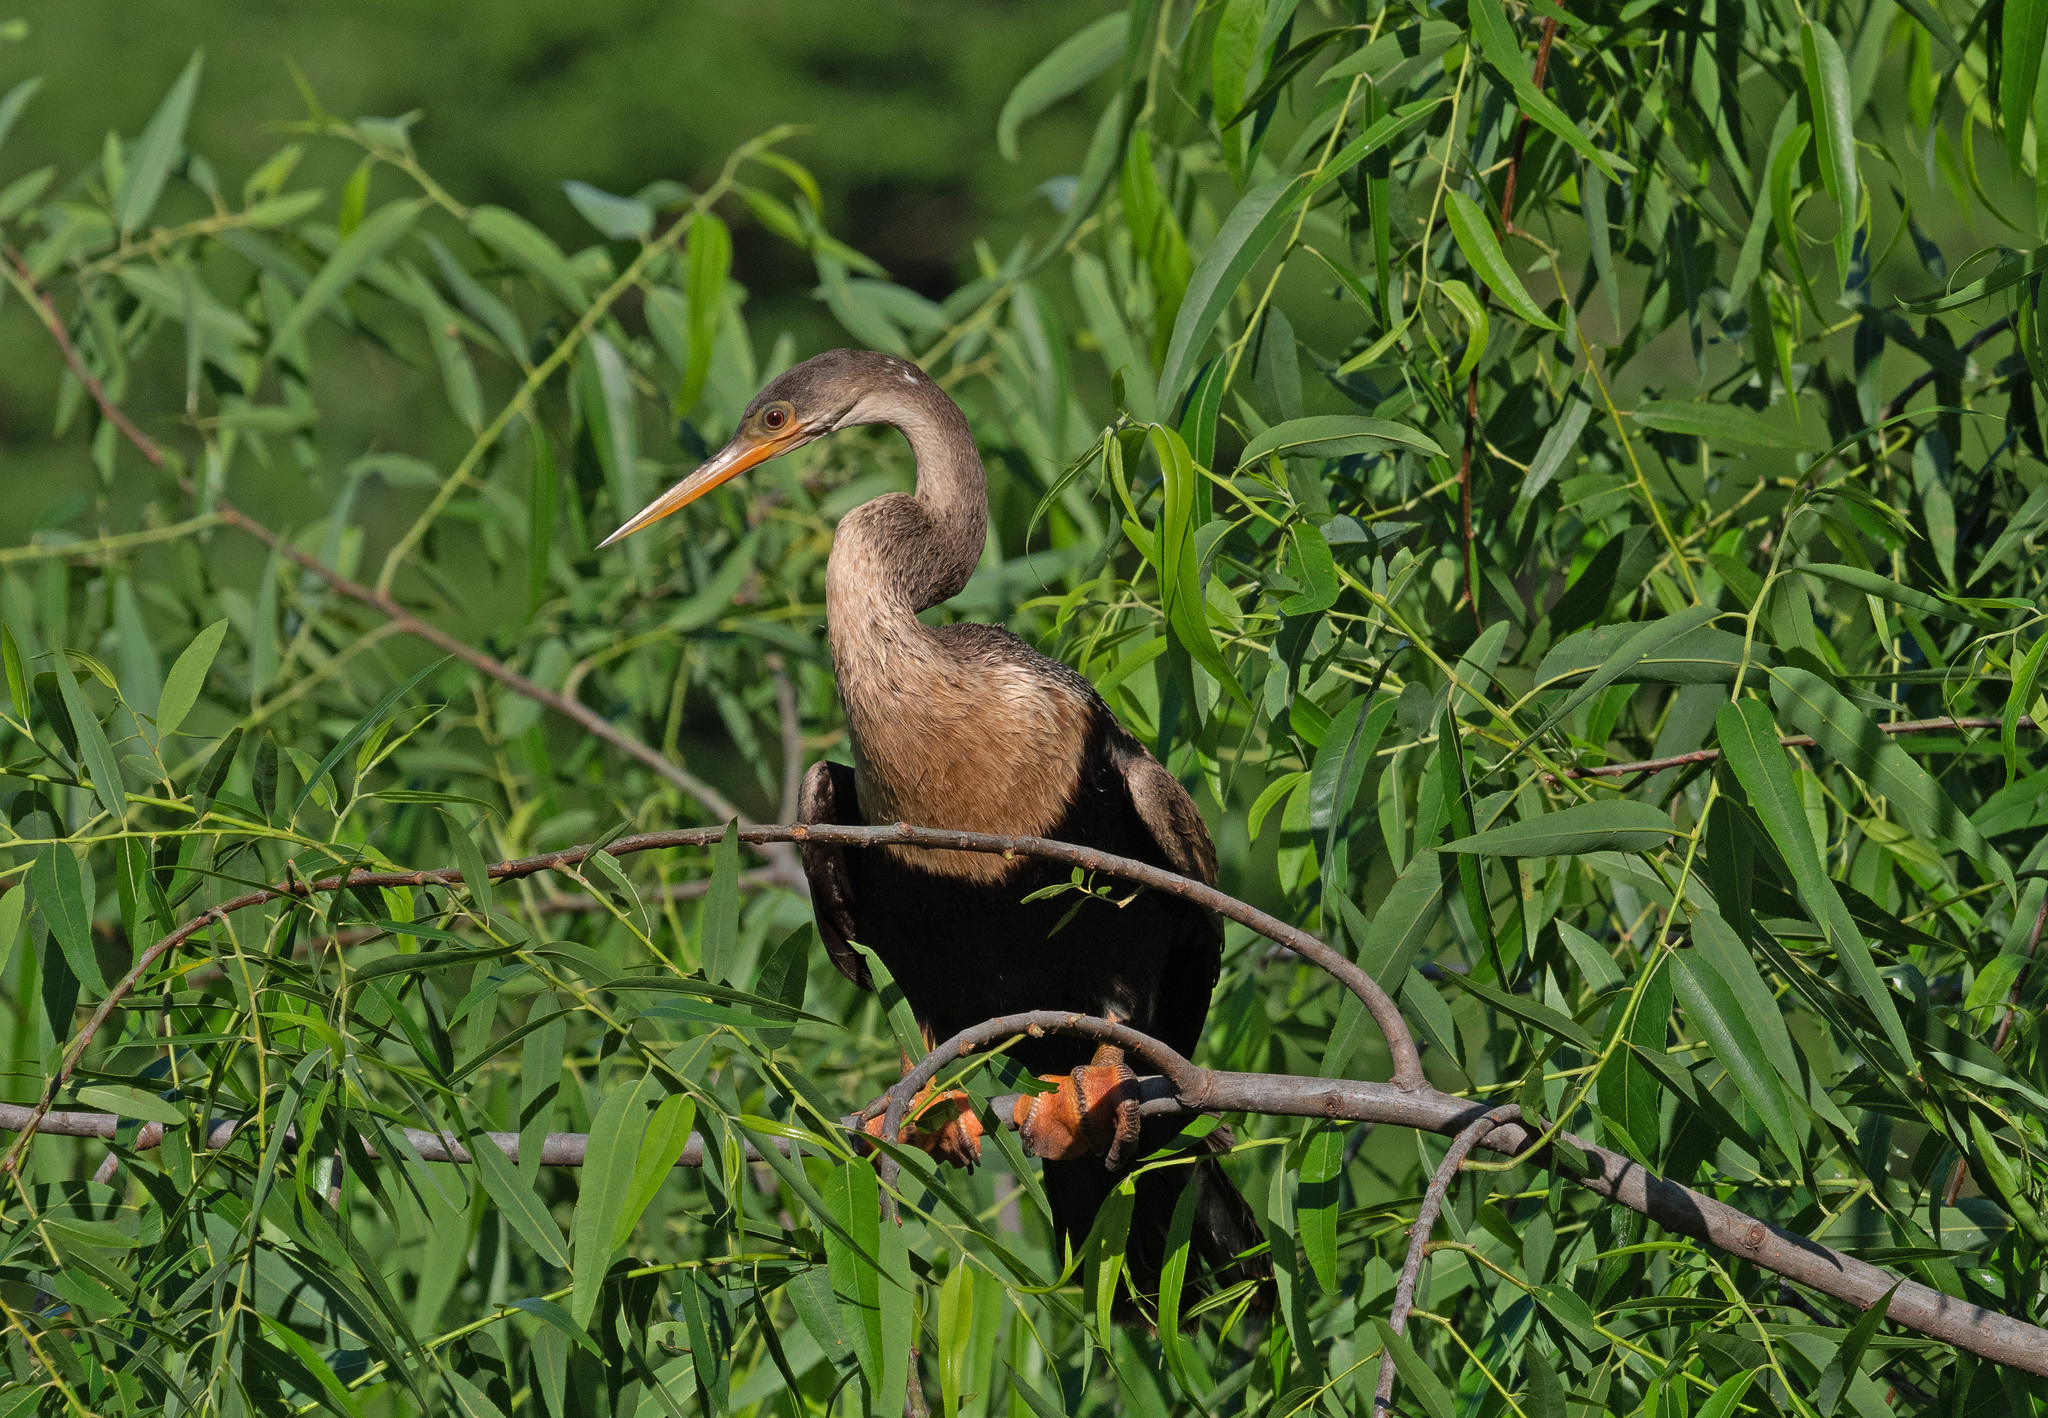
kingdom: Animalia
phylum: Chordata
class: Aves
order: Suliformes
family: Anhingidae
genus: Anhinga
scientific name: Anhinga anhinga
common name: Anhinga
